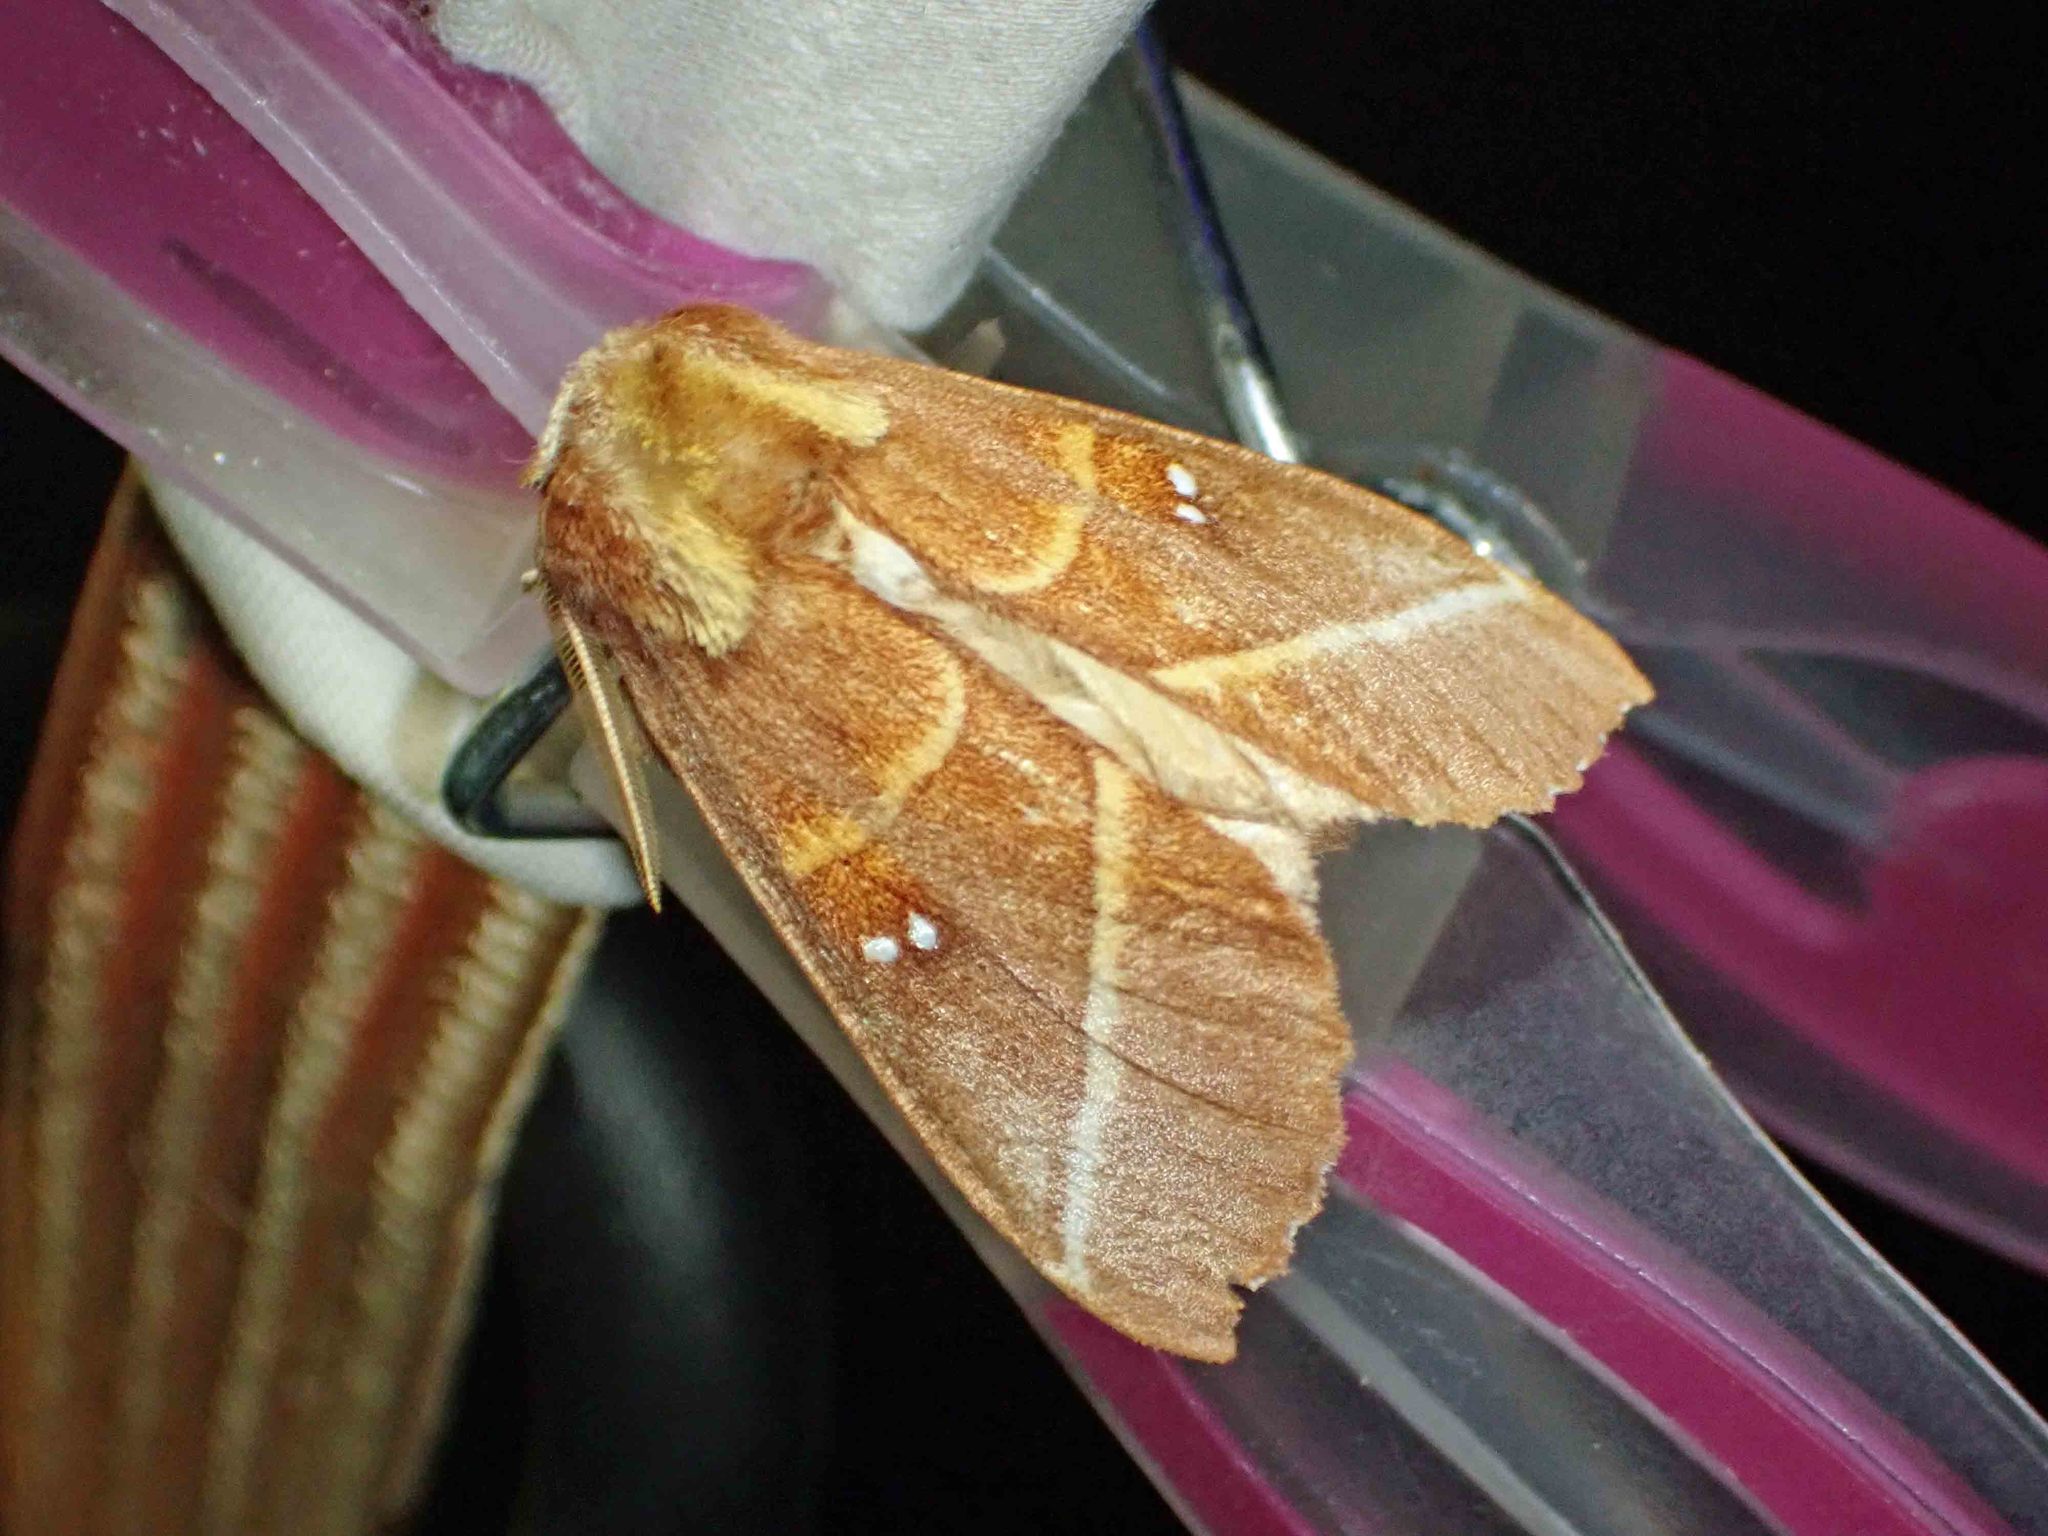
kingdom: Animalia
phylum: Arthropoda
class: Insecta
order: Lepidoptera
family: Notodontidae
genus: Nadata
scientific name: Nadata gibbosa
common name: White-dotted prominent
